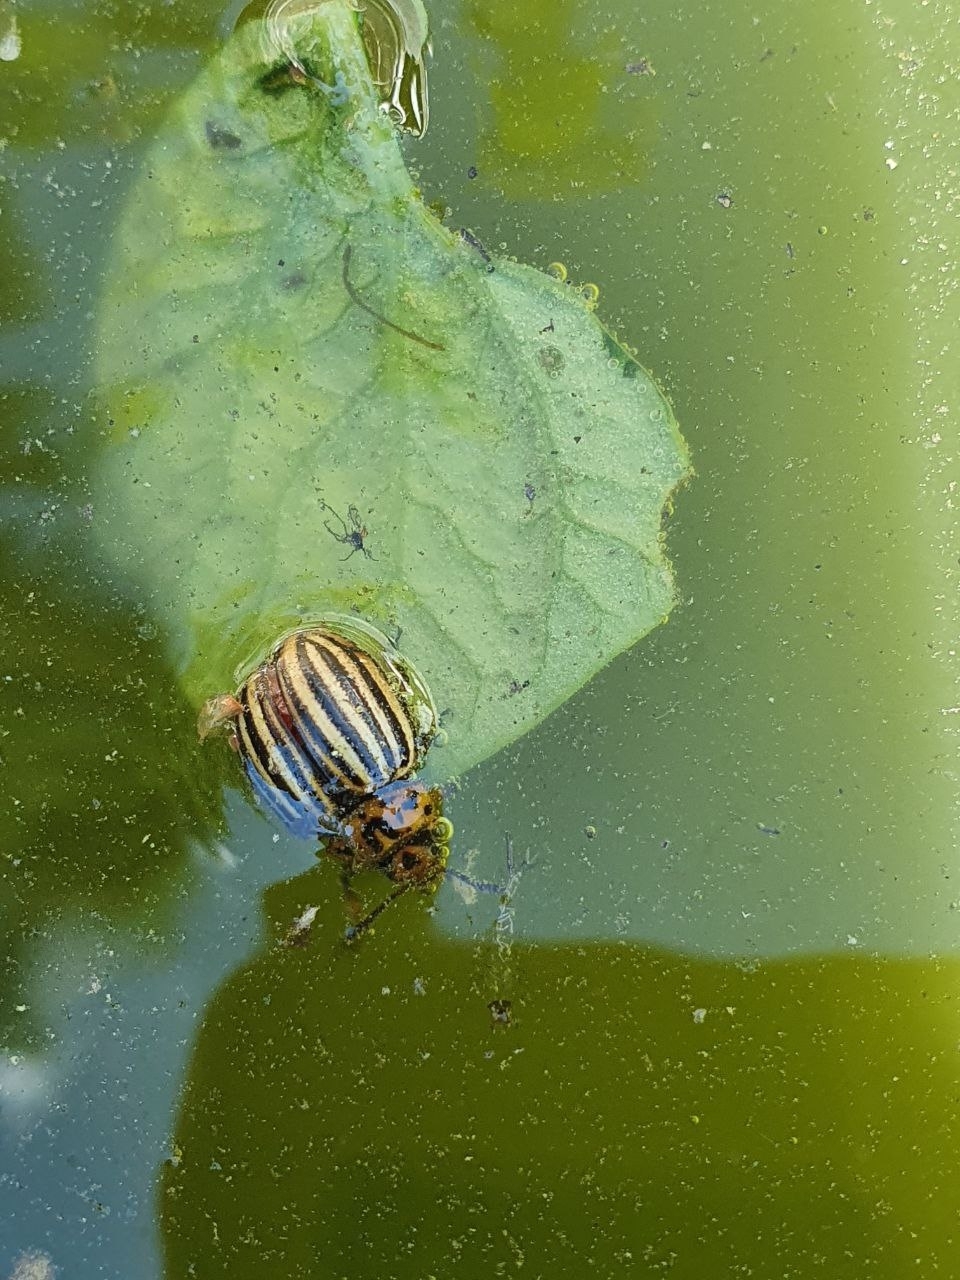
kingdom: Animalia
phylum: Arthropoda
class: Insecta
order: Coleoptera
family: Chrysomelidae
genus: Leptinotarsa
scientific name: Leptinotarsa decemlineata
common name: Colorado potato beetle
